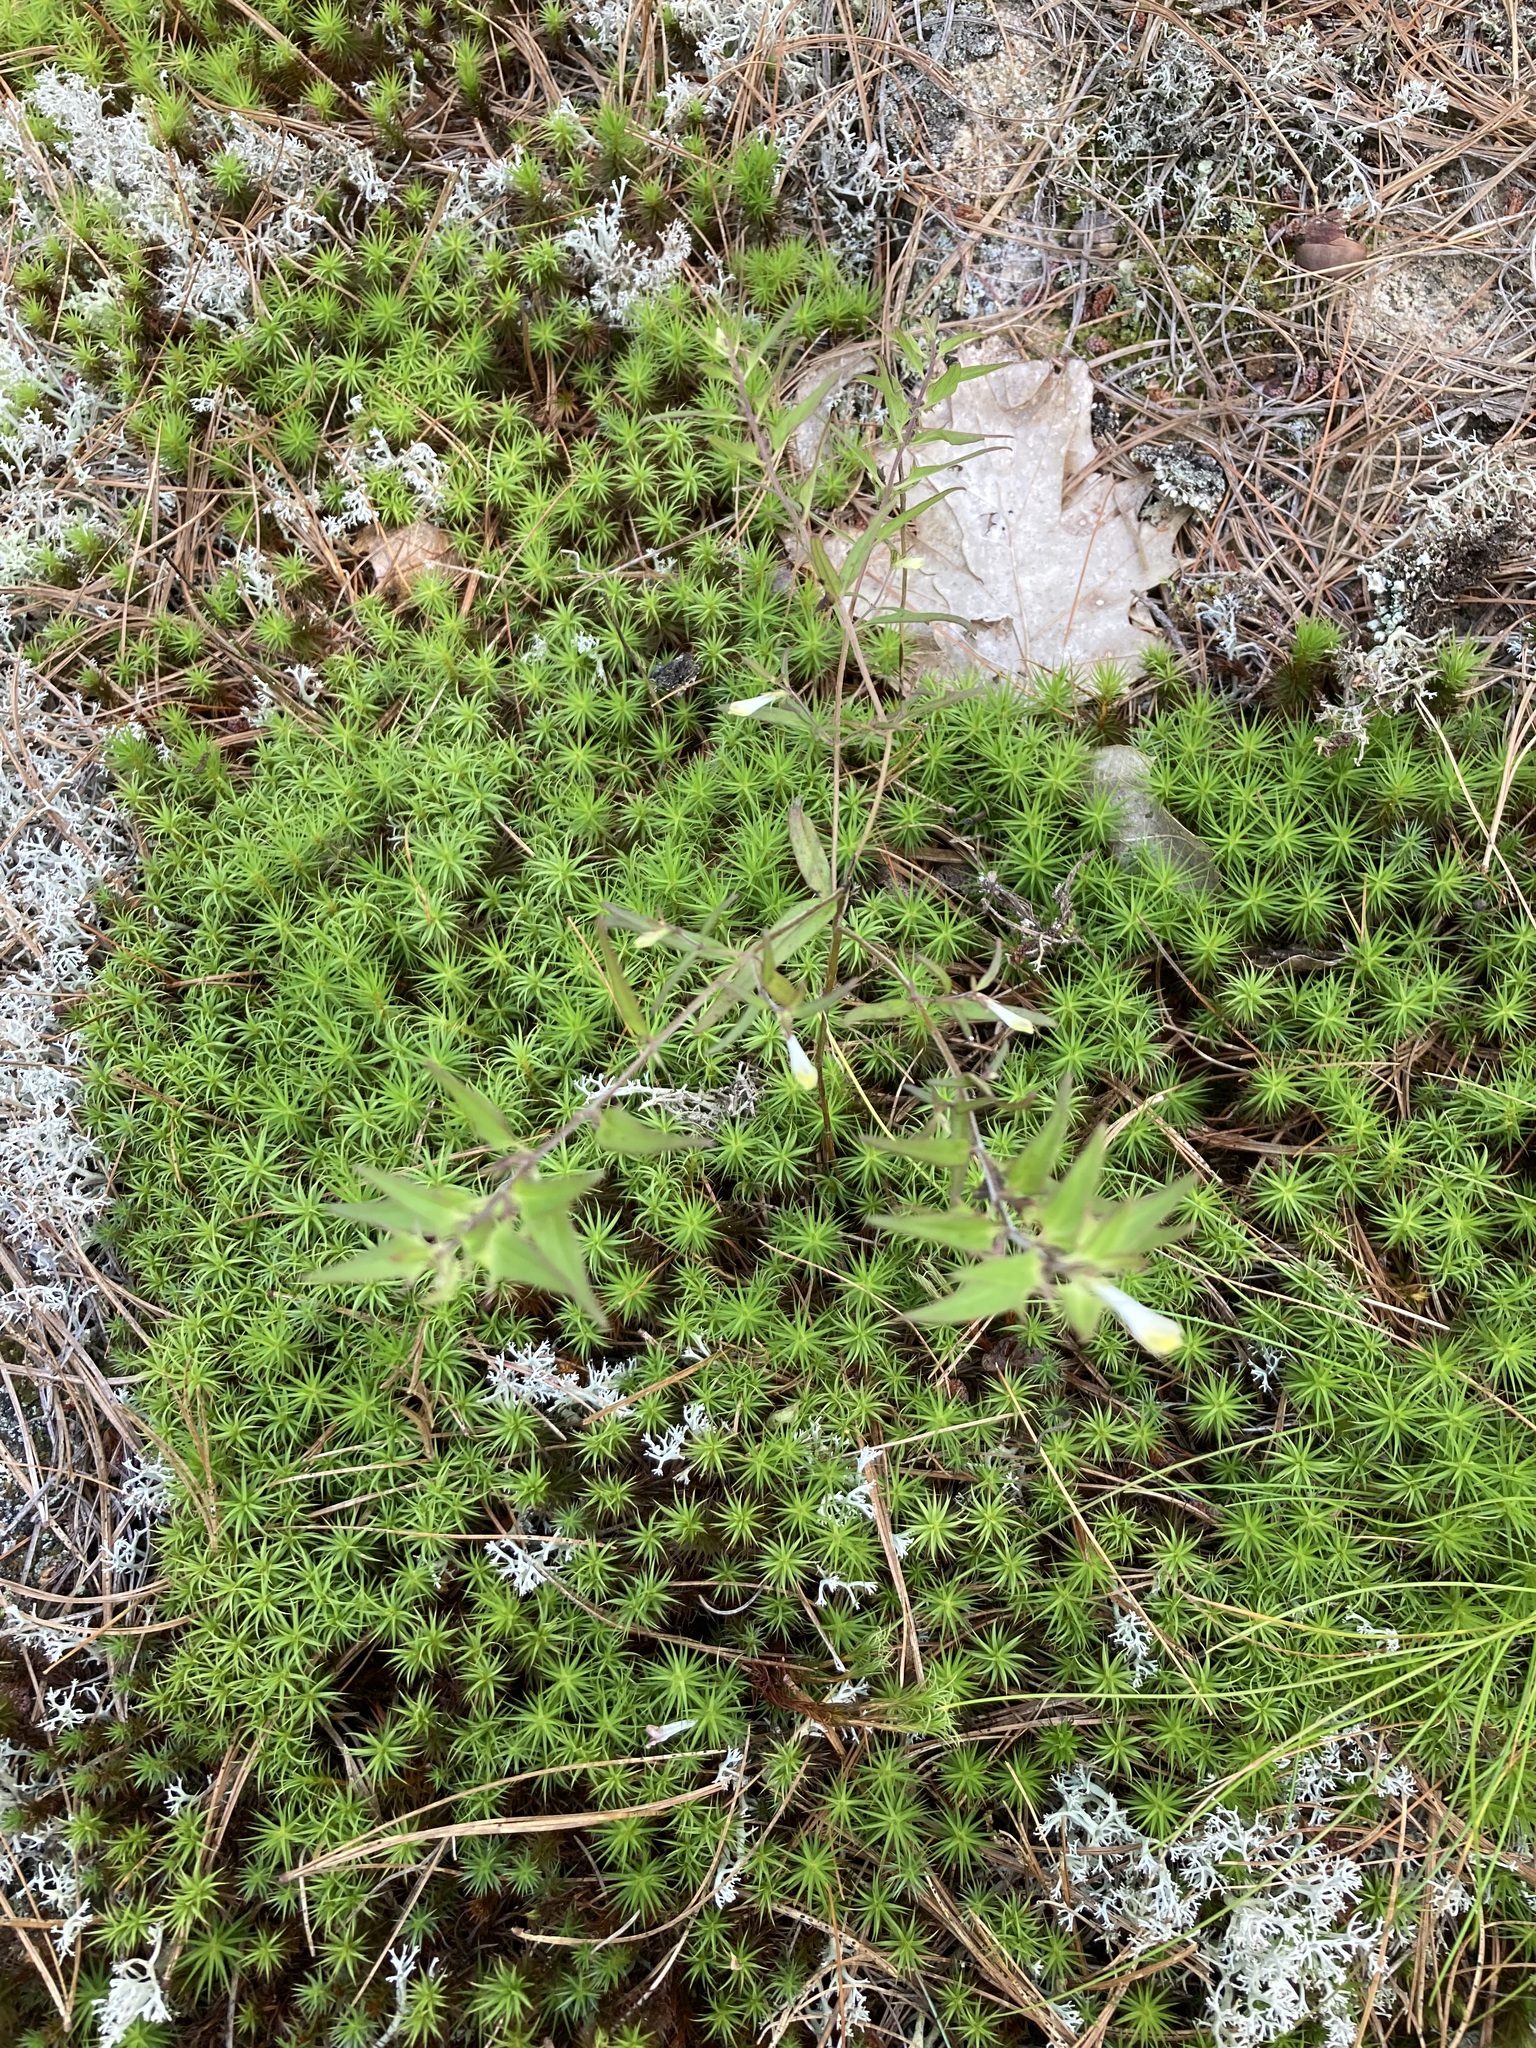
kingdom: Plantae
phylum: Tracheophyta
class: Magnoliopsida
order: Lamiales
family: Orobanchaceae
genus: Melampyrum
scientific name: Melampyrum lineare
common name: American cow-wheat
